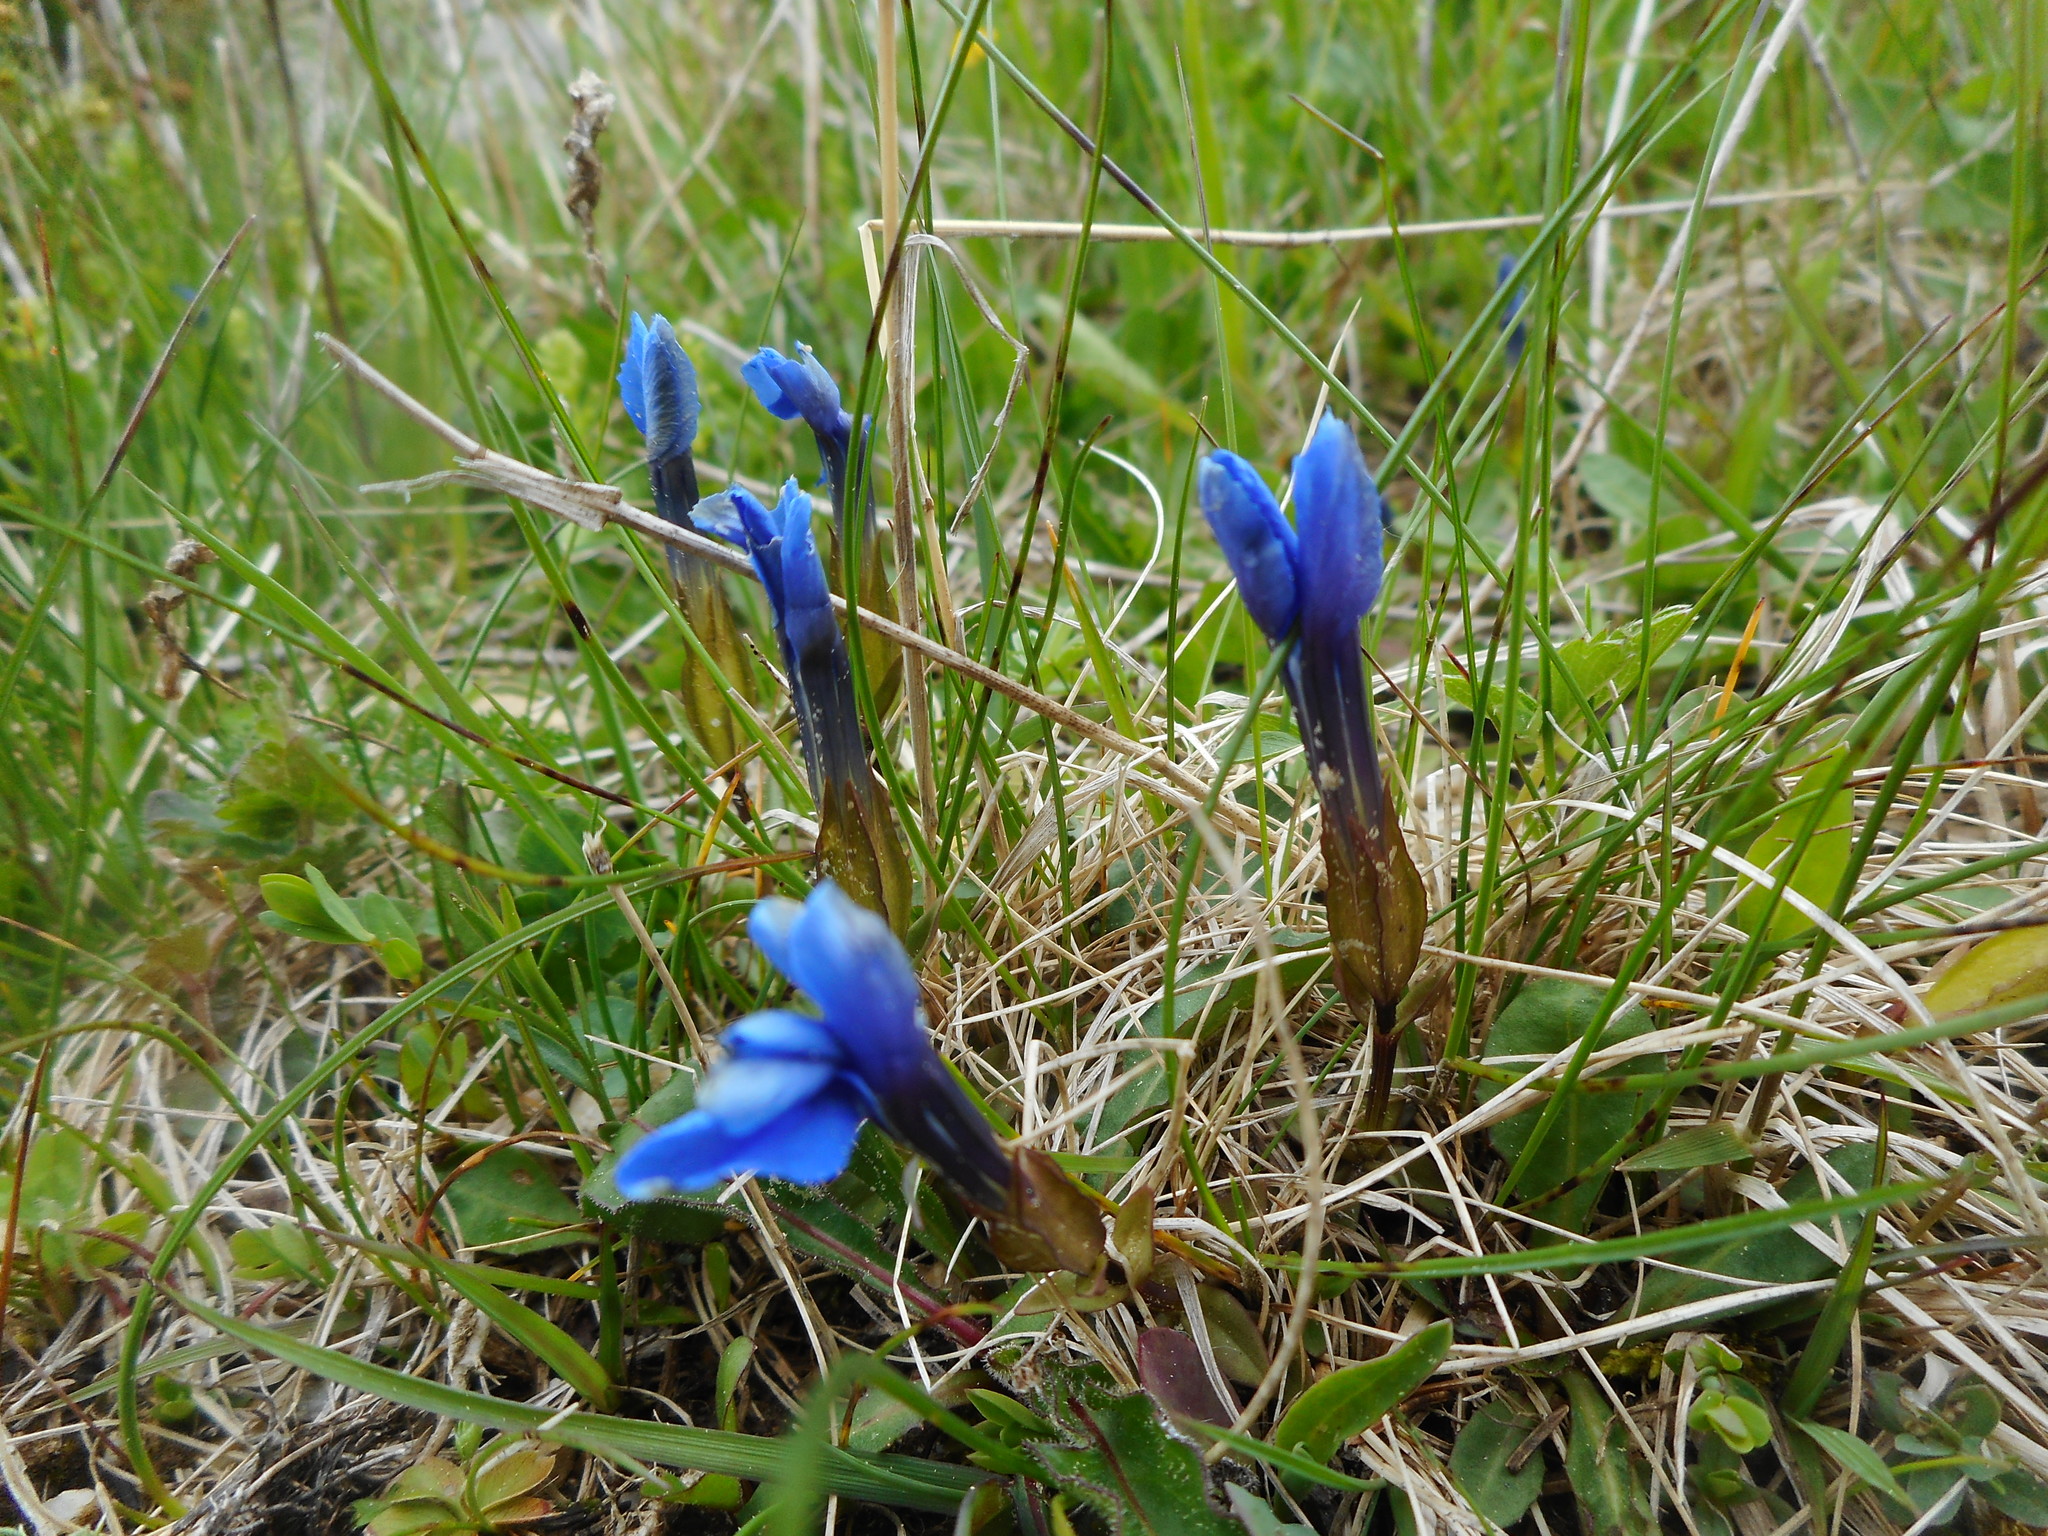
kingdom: Plantae
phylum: Tracheophyta
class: Magnoliopsida
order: Gentianales
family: Gentianaceae
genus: Gentiana
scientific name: Gentiana verna
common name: Spring gentian
